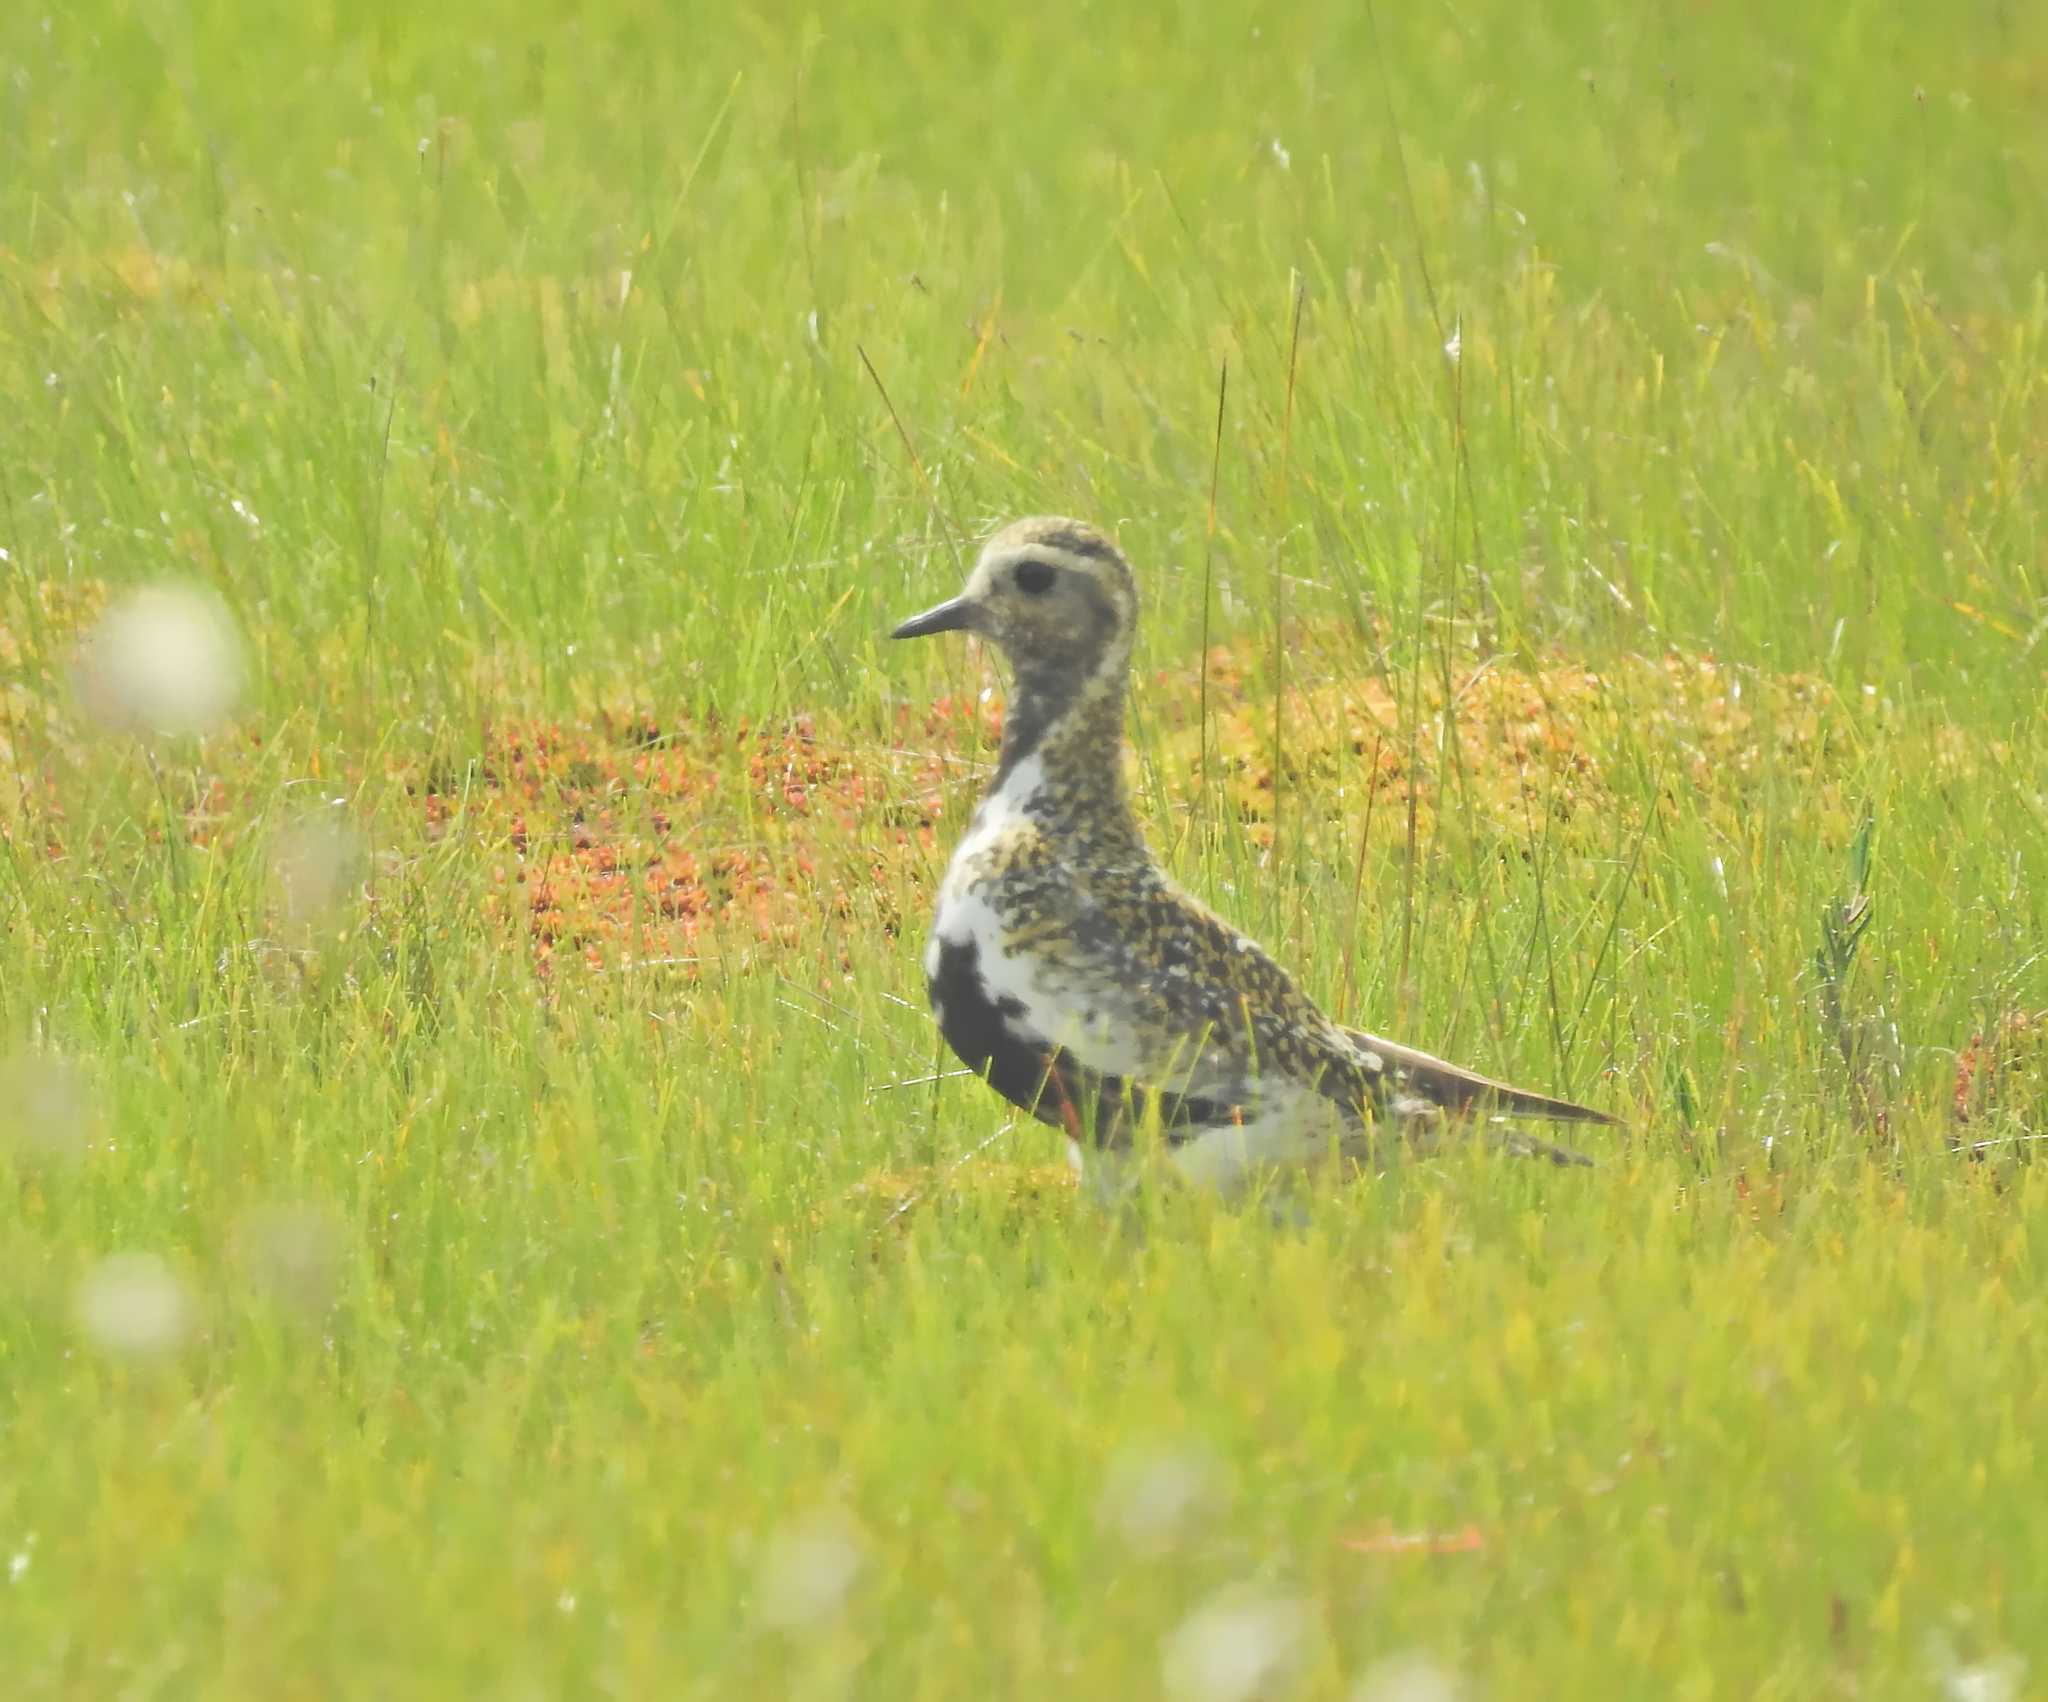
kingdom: Animalia
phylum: Chordata
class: Aves
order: Charadriiformes
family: Charadriidae
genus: Pluvialis
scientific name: Pluvialis apricaria
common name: European golden plover
